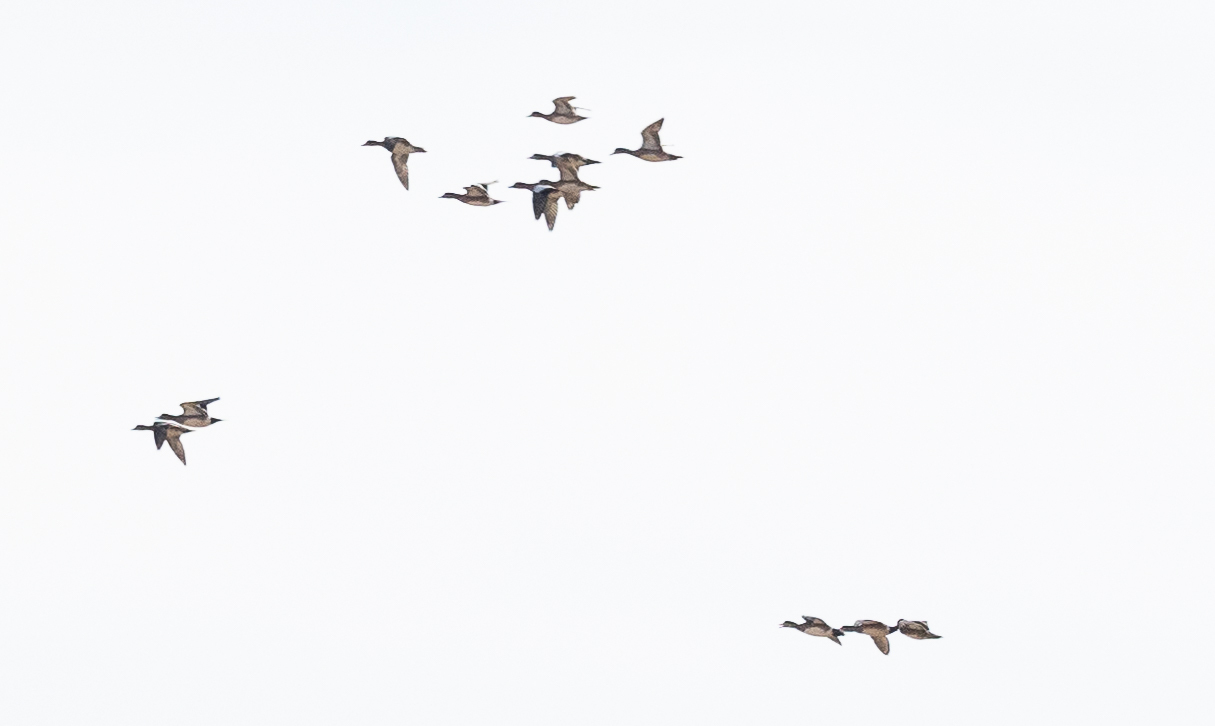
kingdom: Animalia
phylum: Chordata
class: Aves
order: Anseriformes
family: Anatidae
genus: Anas
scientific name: Anas acuta
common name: Northern pintail
